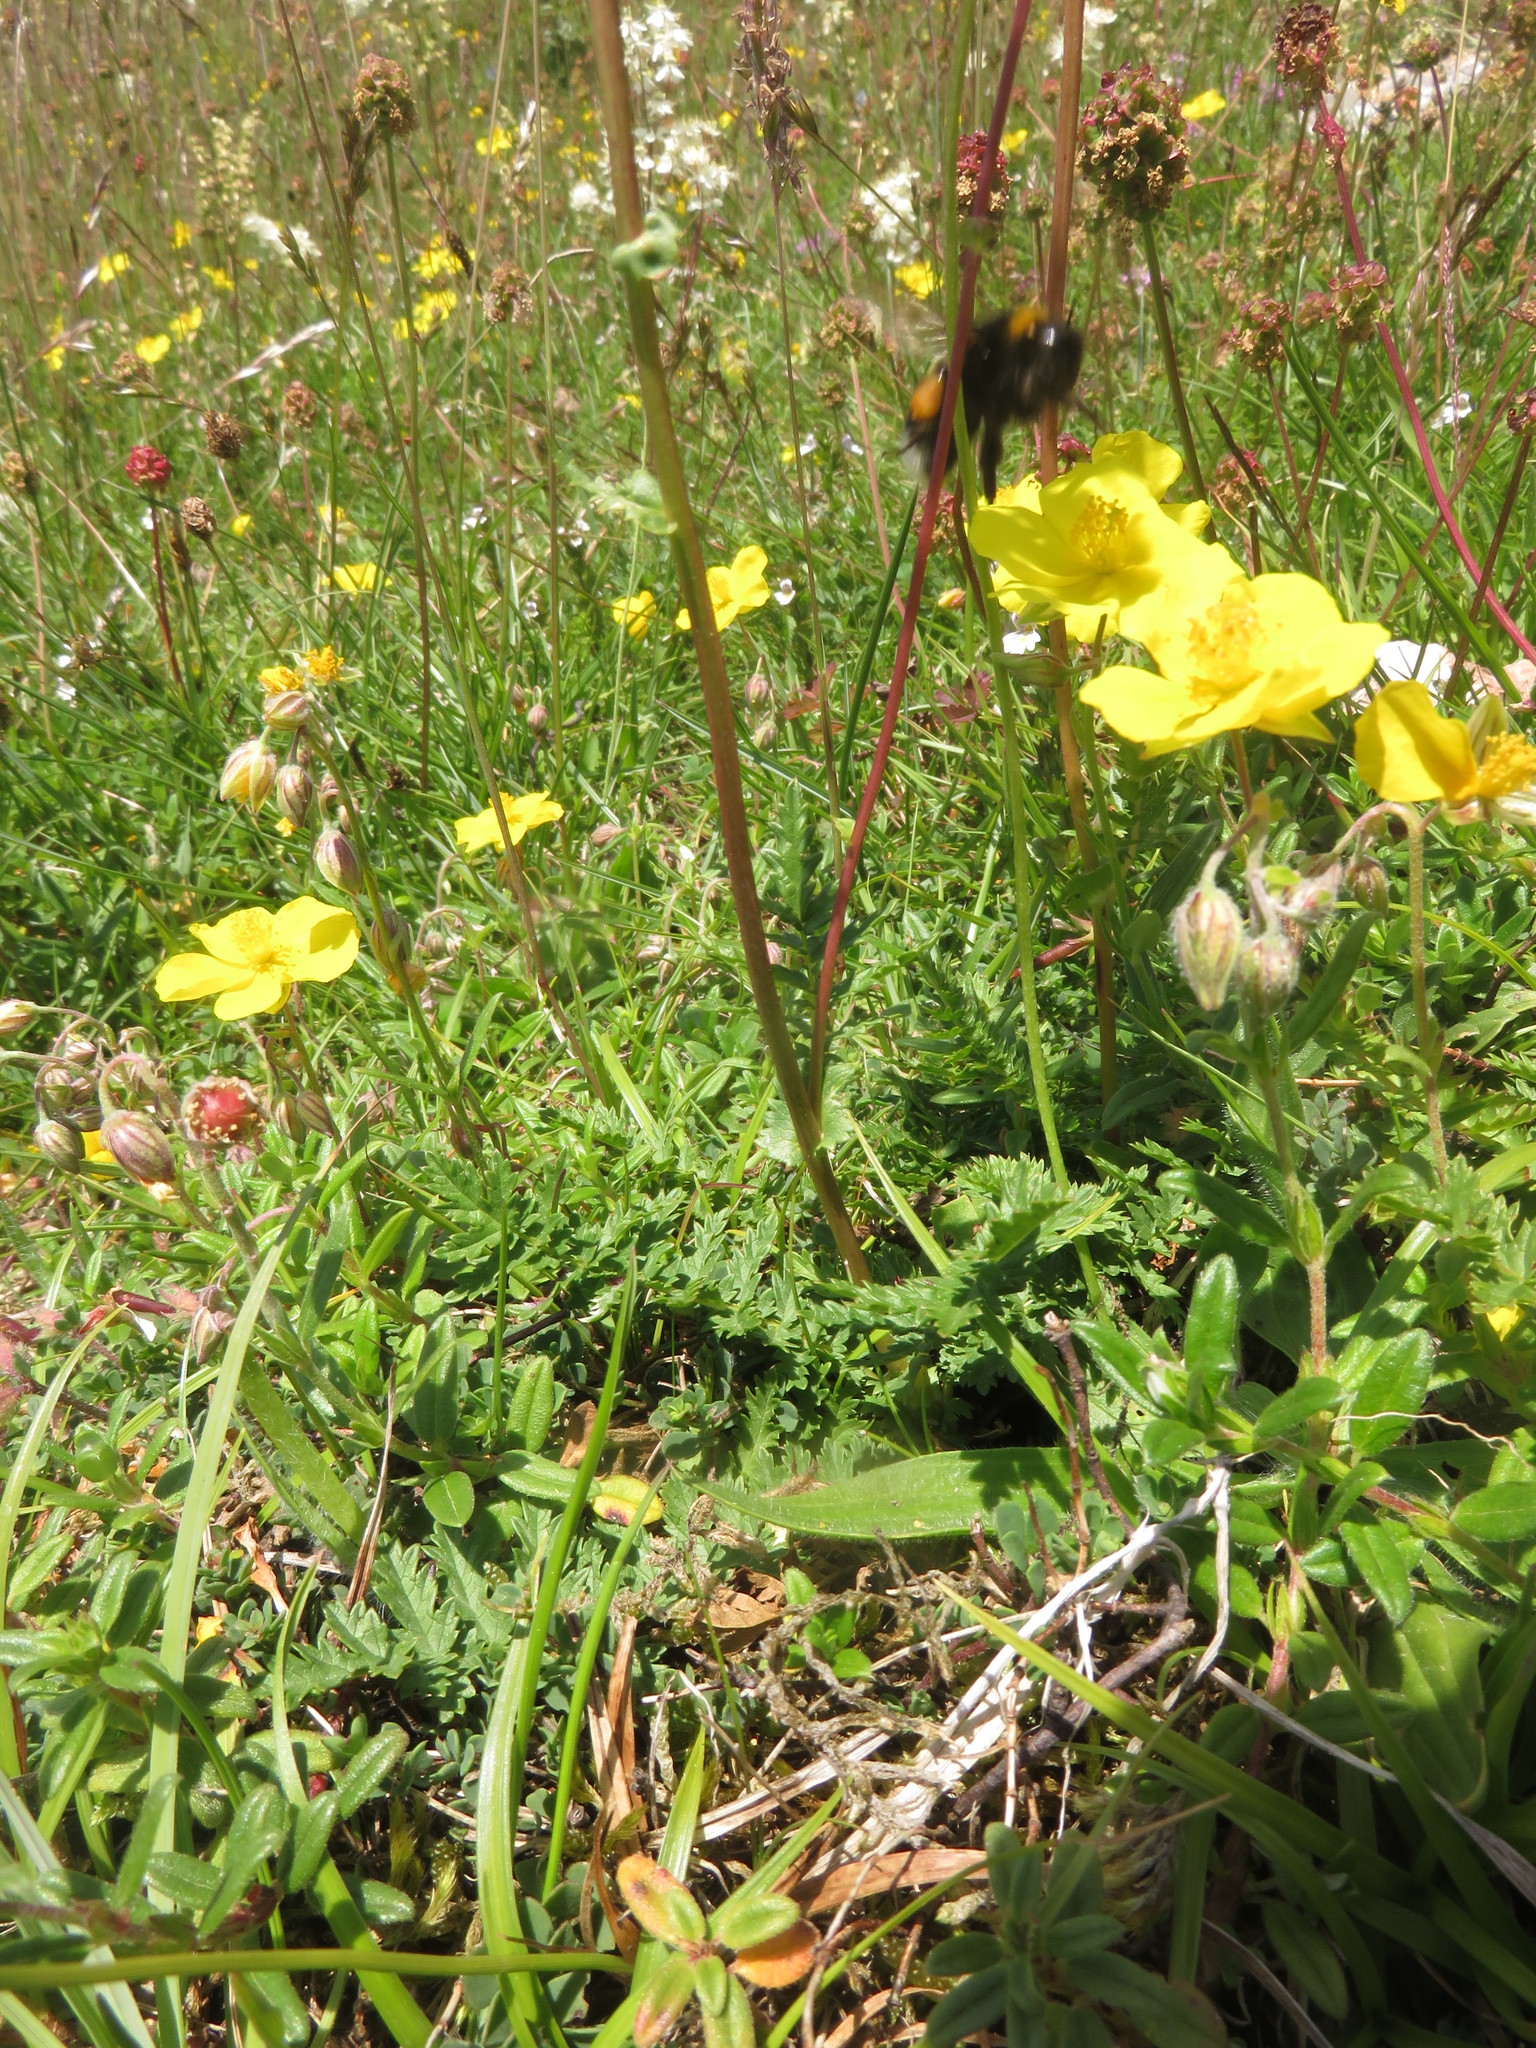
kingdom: Plantae
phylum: Tracheophyta
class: Magnoliopsida
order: Rosales
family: Rosaceae
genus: Filipendula
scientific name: Filipendula vulgaris
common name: Dropwort
